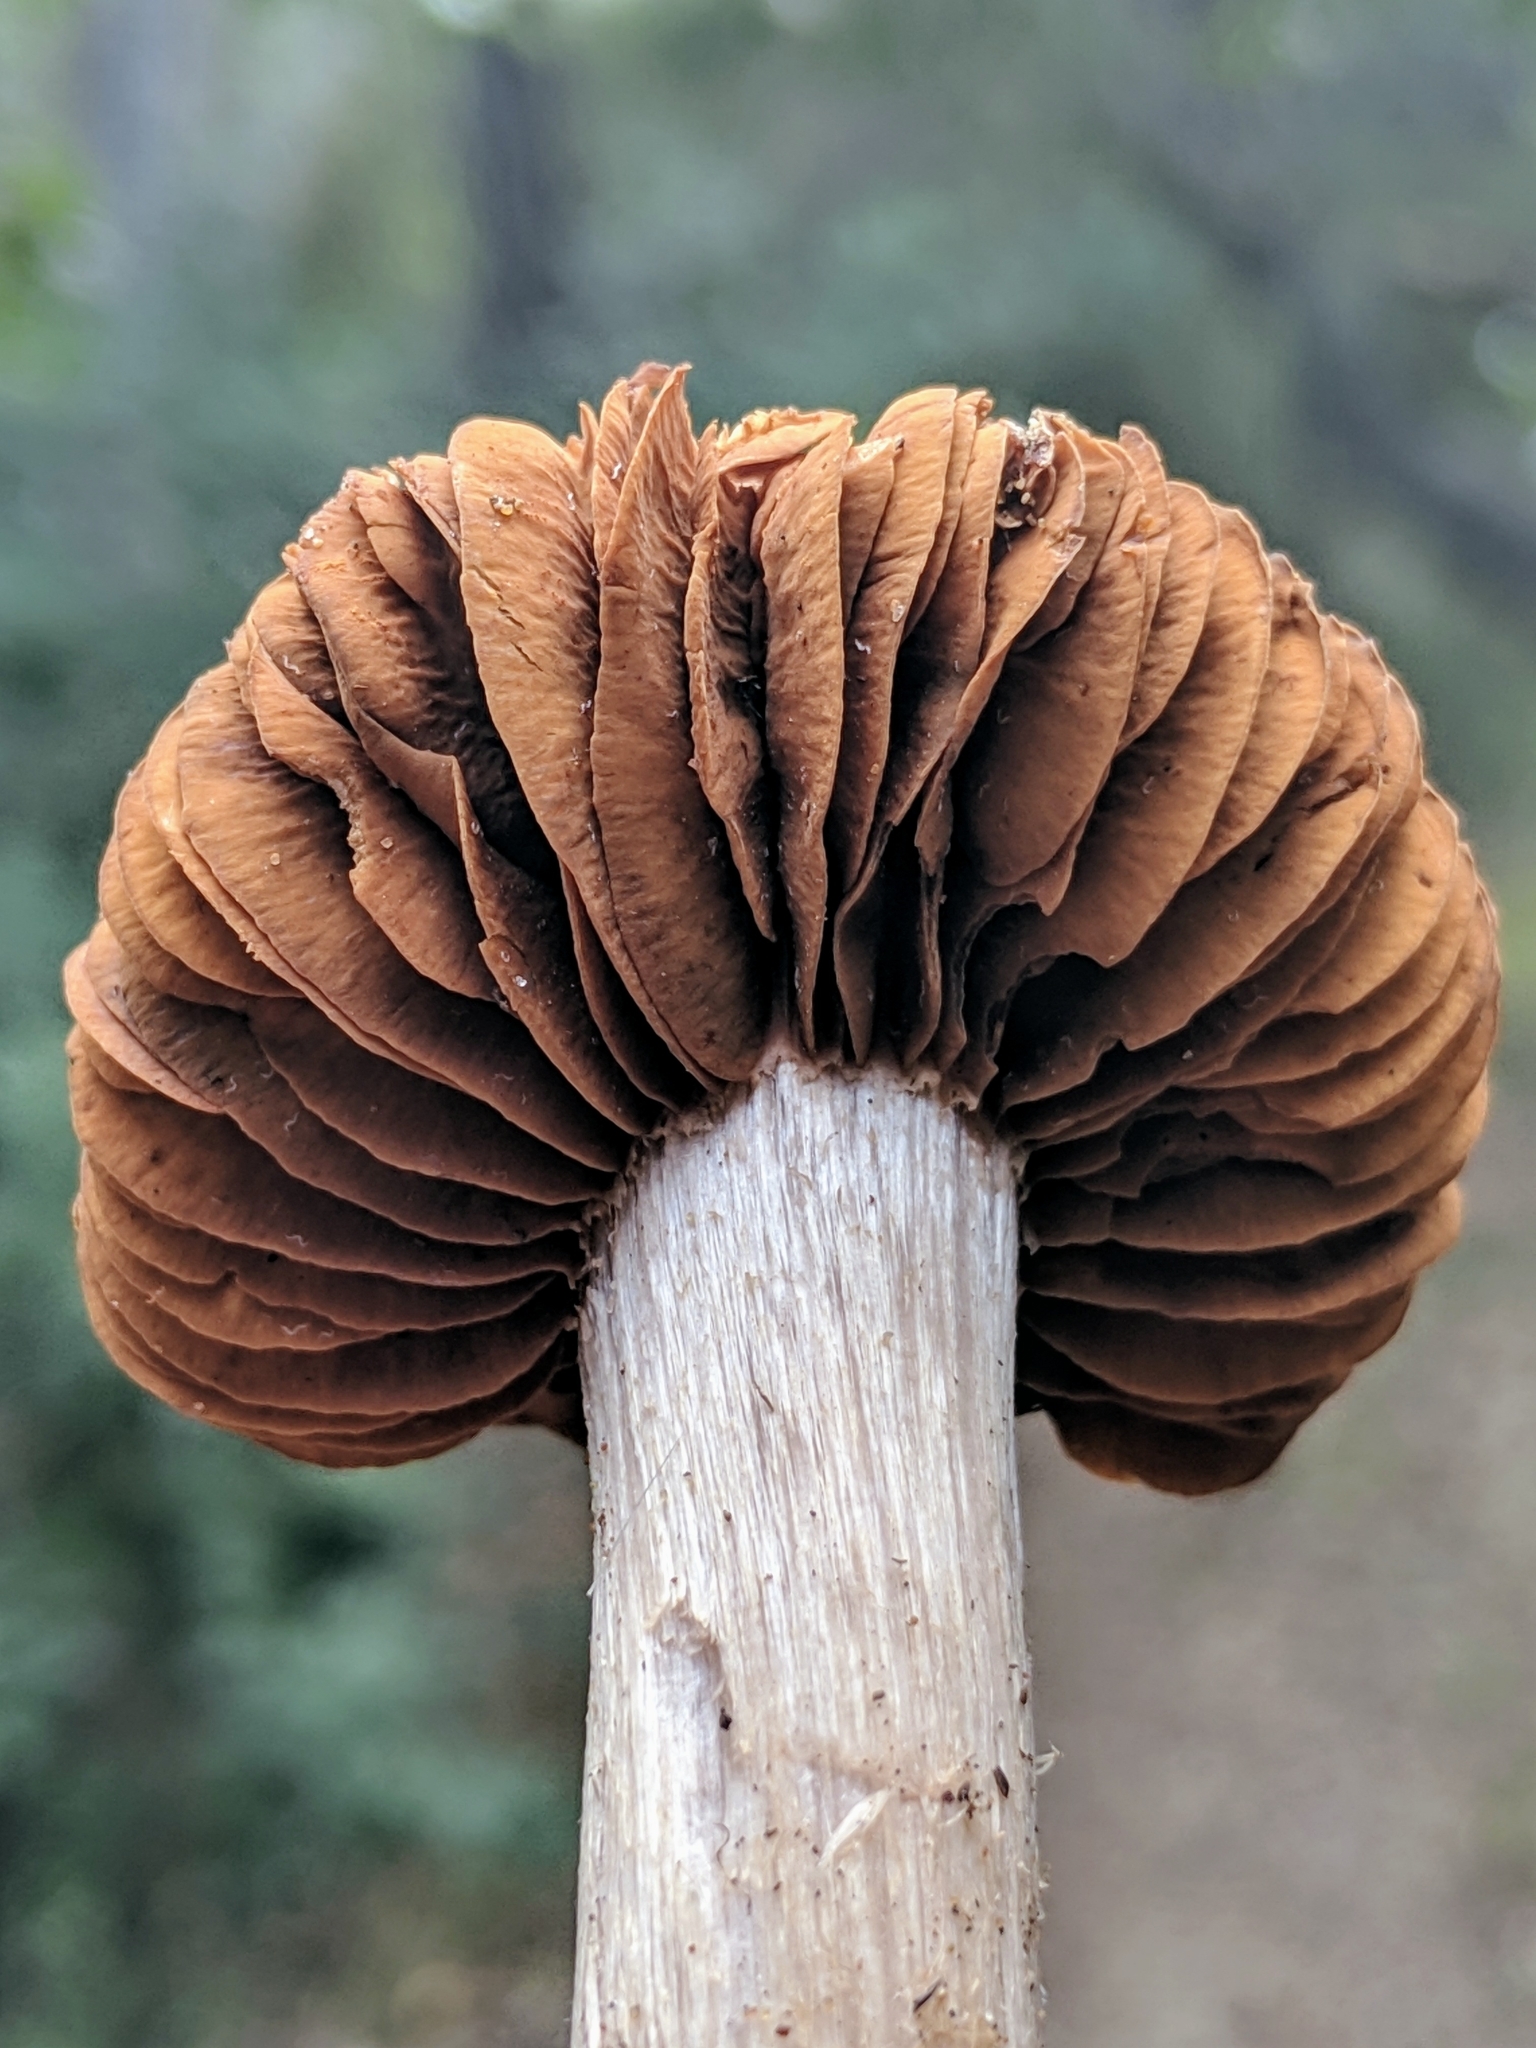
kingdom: Fungi
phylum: Basidiomycota
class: Agaricomycetes
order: Agaricales
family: Cortinariaceae
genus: Cortinarius
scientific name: Cortinarius ohlone
